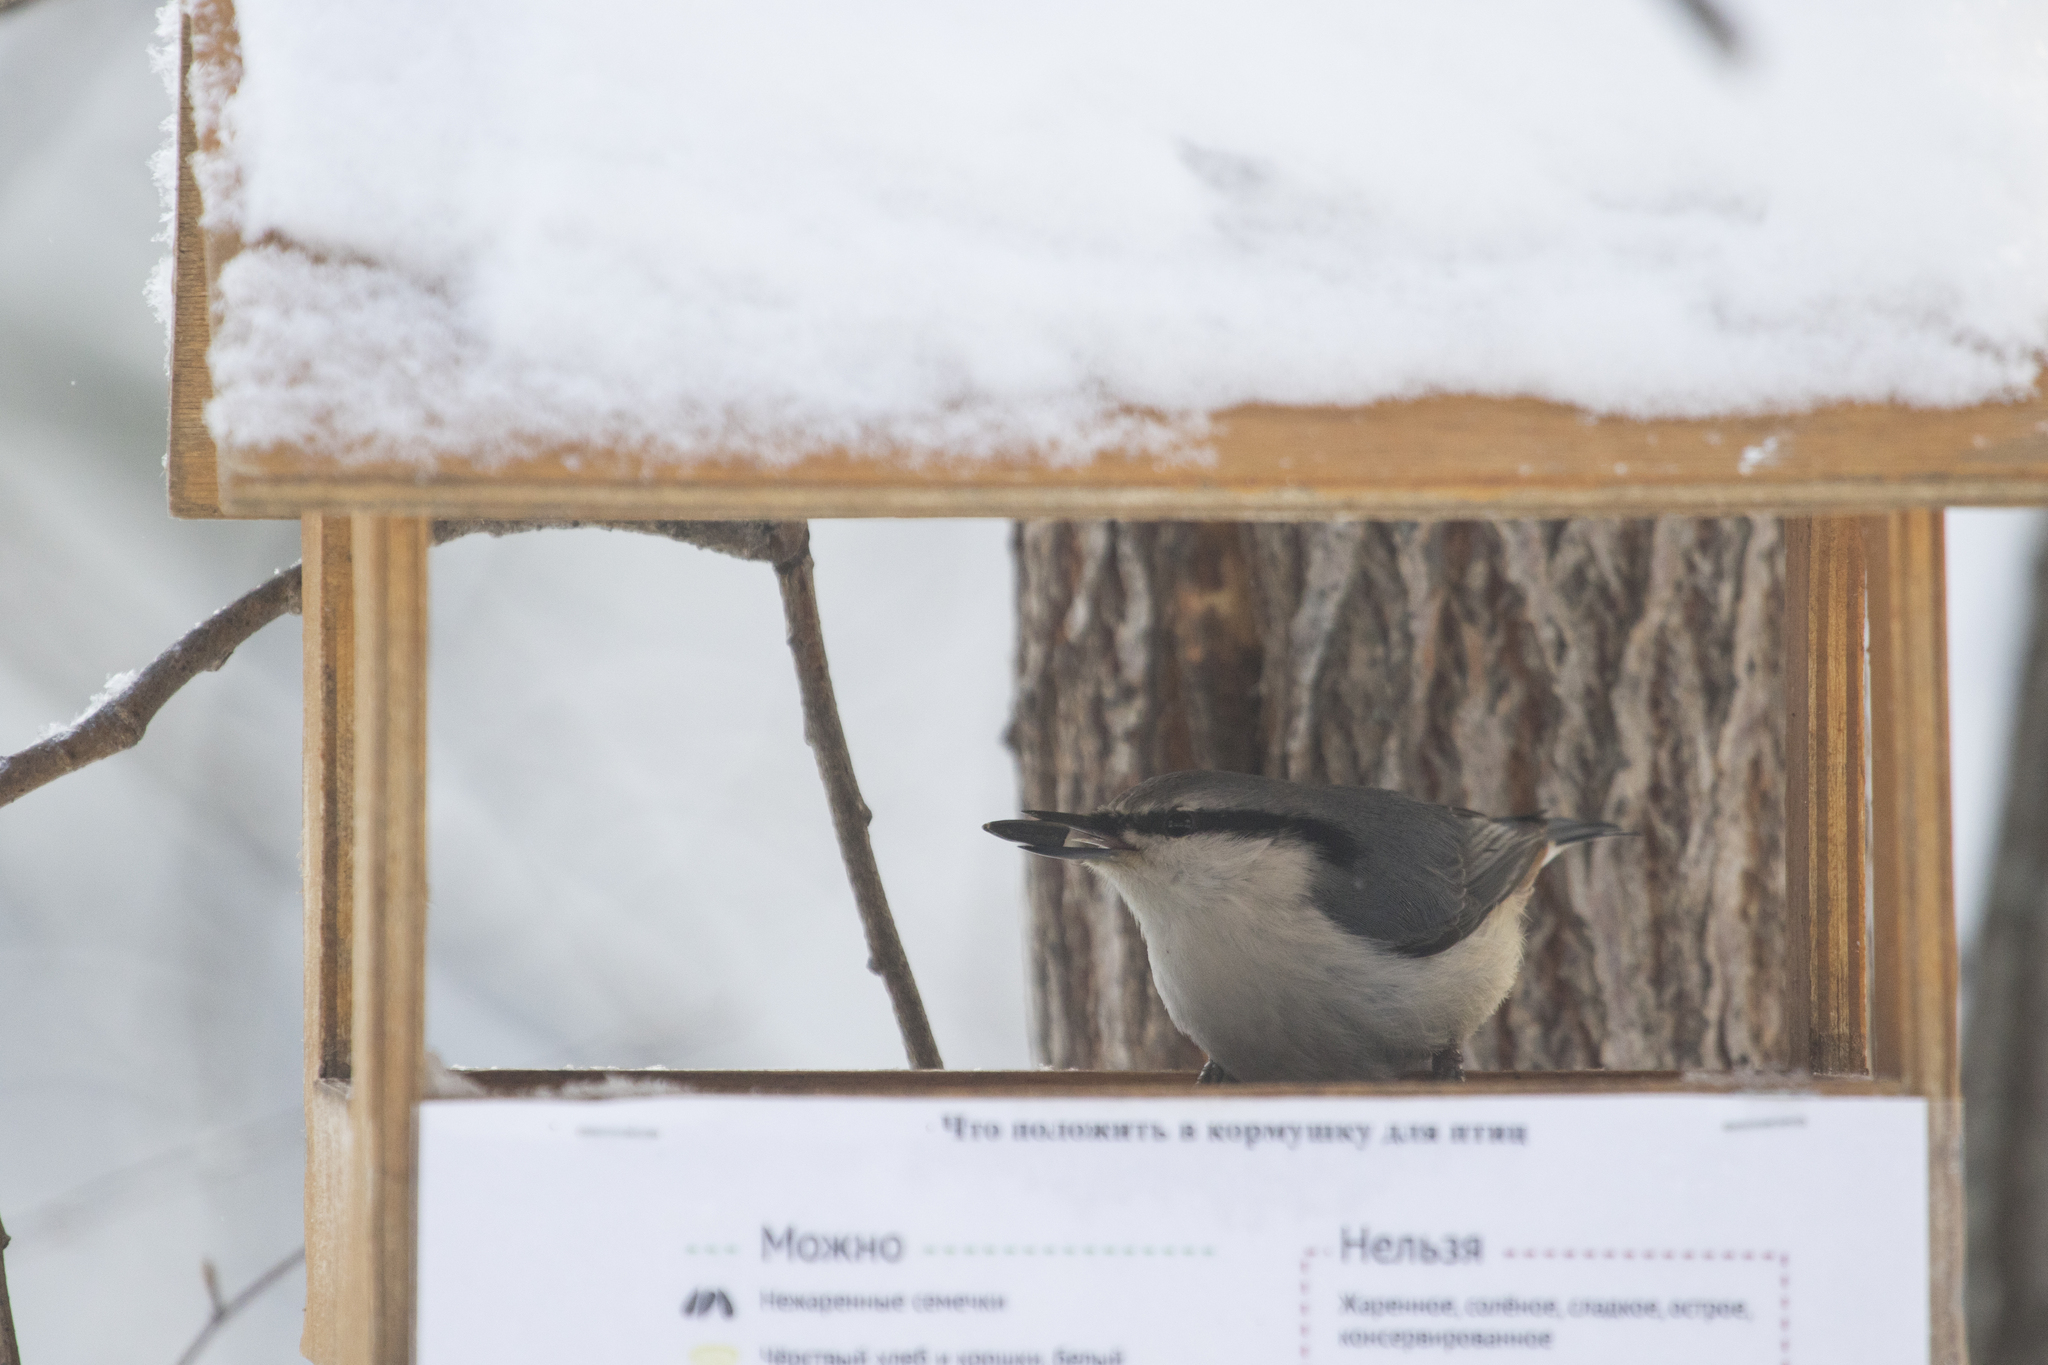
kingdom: Animalia
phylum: Chordata
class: Aves
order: Passeriformes
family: Sittidae
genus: Sitta
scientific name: Sitta europaea
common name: Eurasian nuthatch
